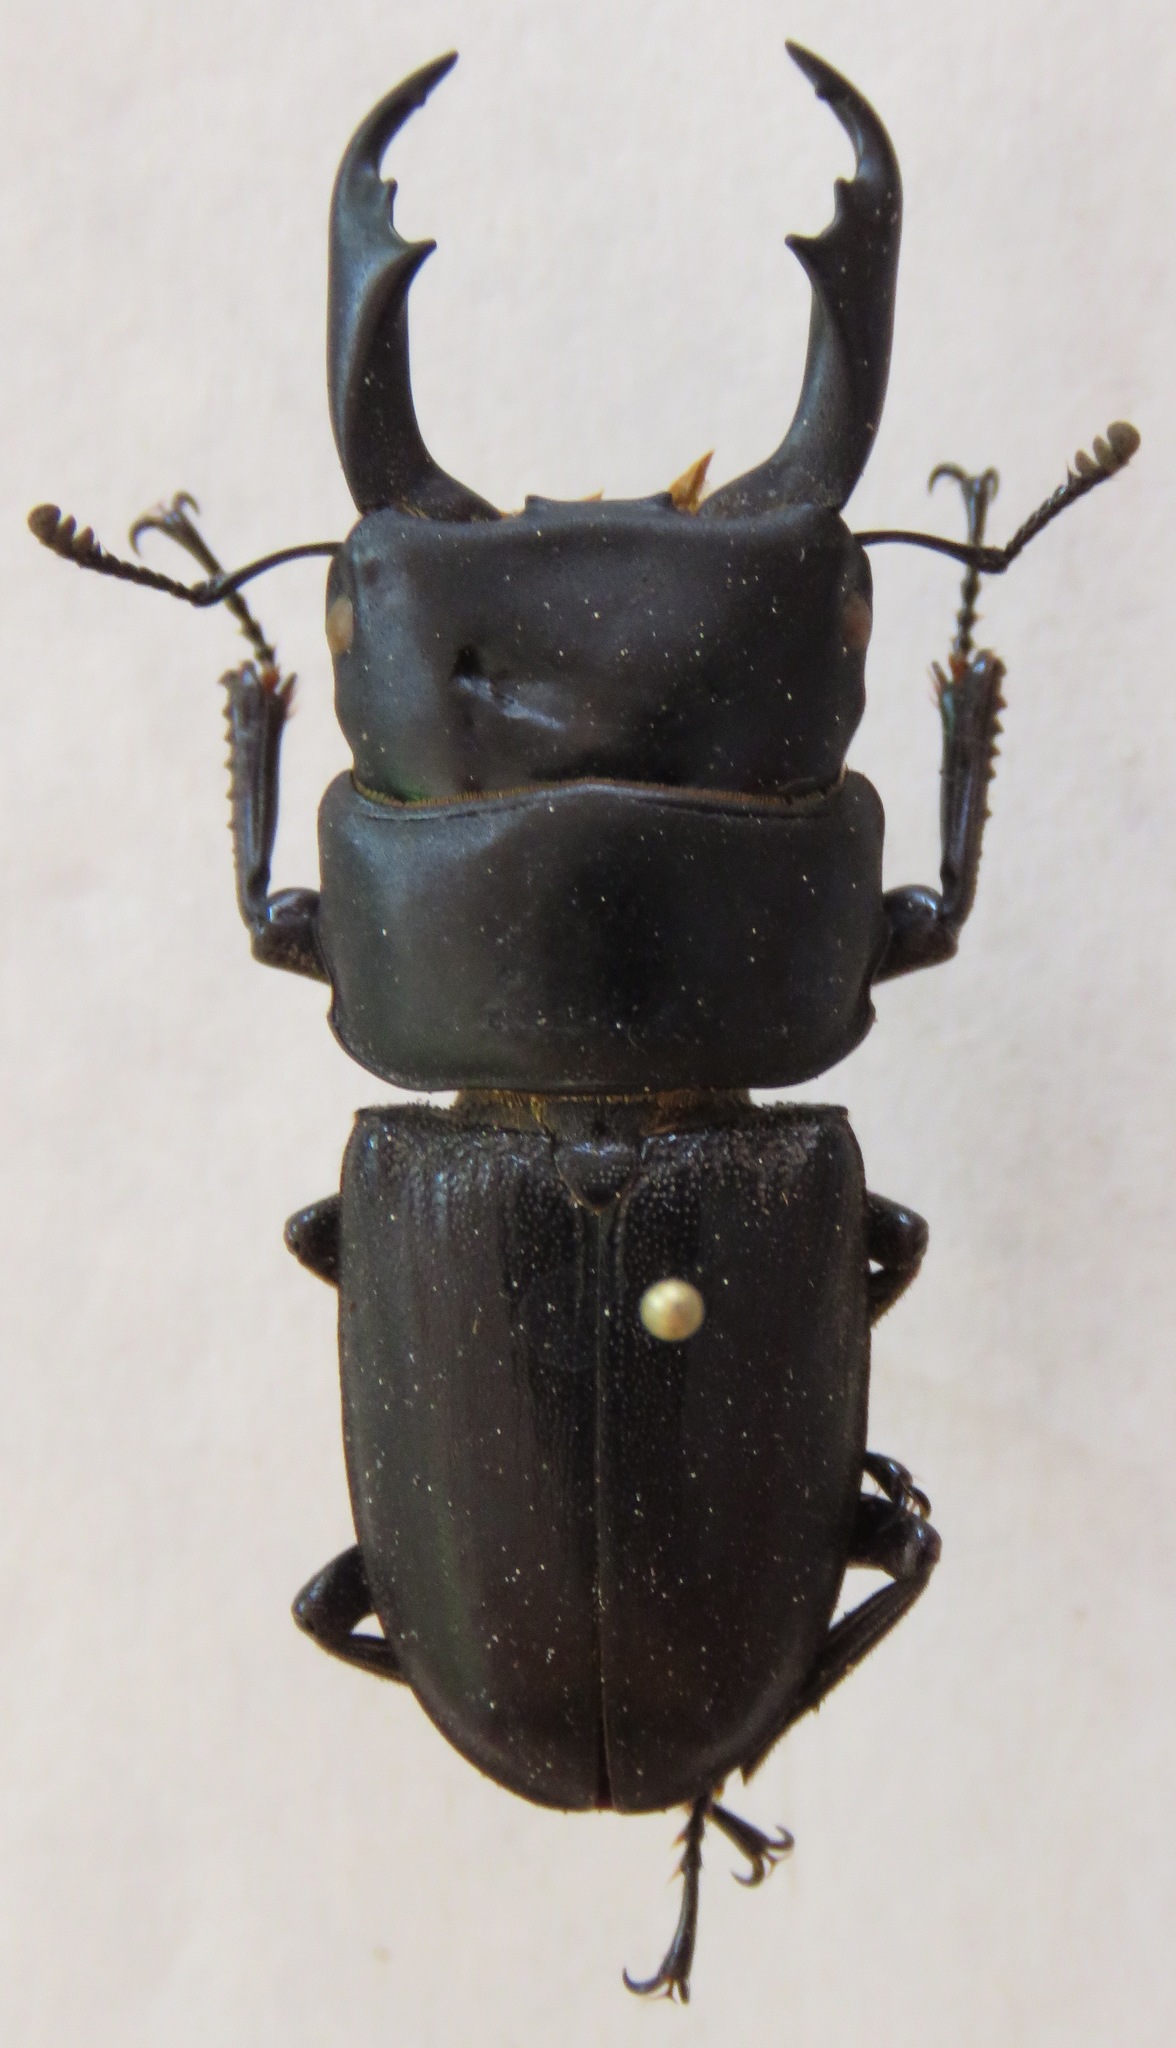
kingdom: Animalia
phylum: Arthropoda
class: Insecta
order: Coleoptera
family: Lucanidae
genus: Dorcus
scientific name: Dorcus cervulus
